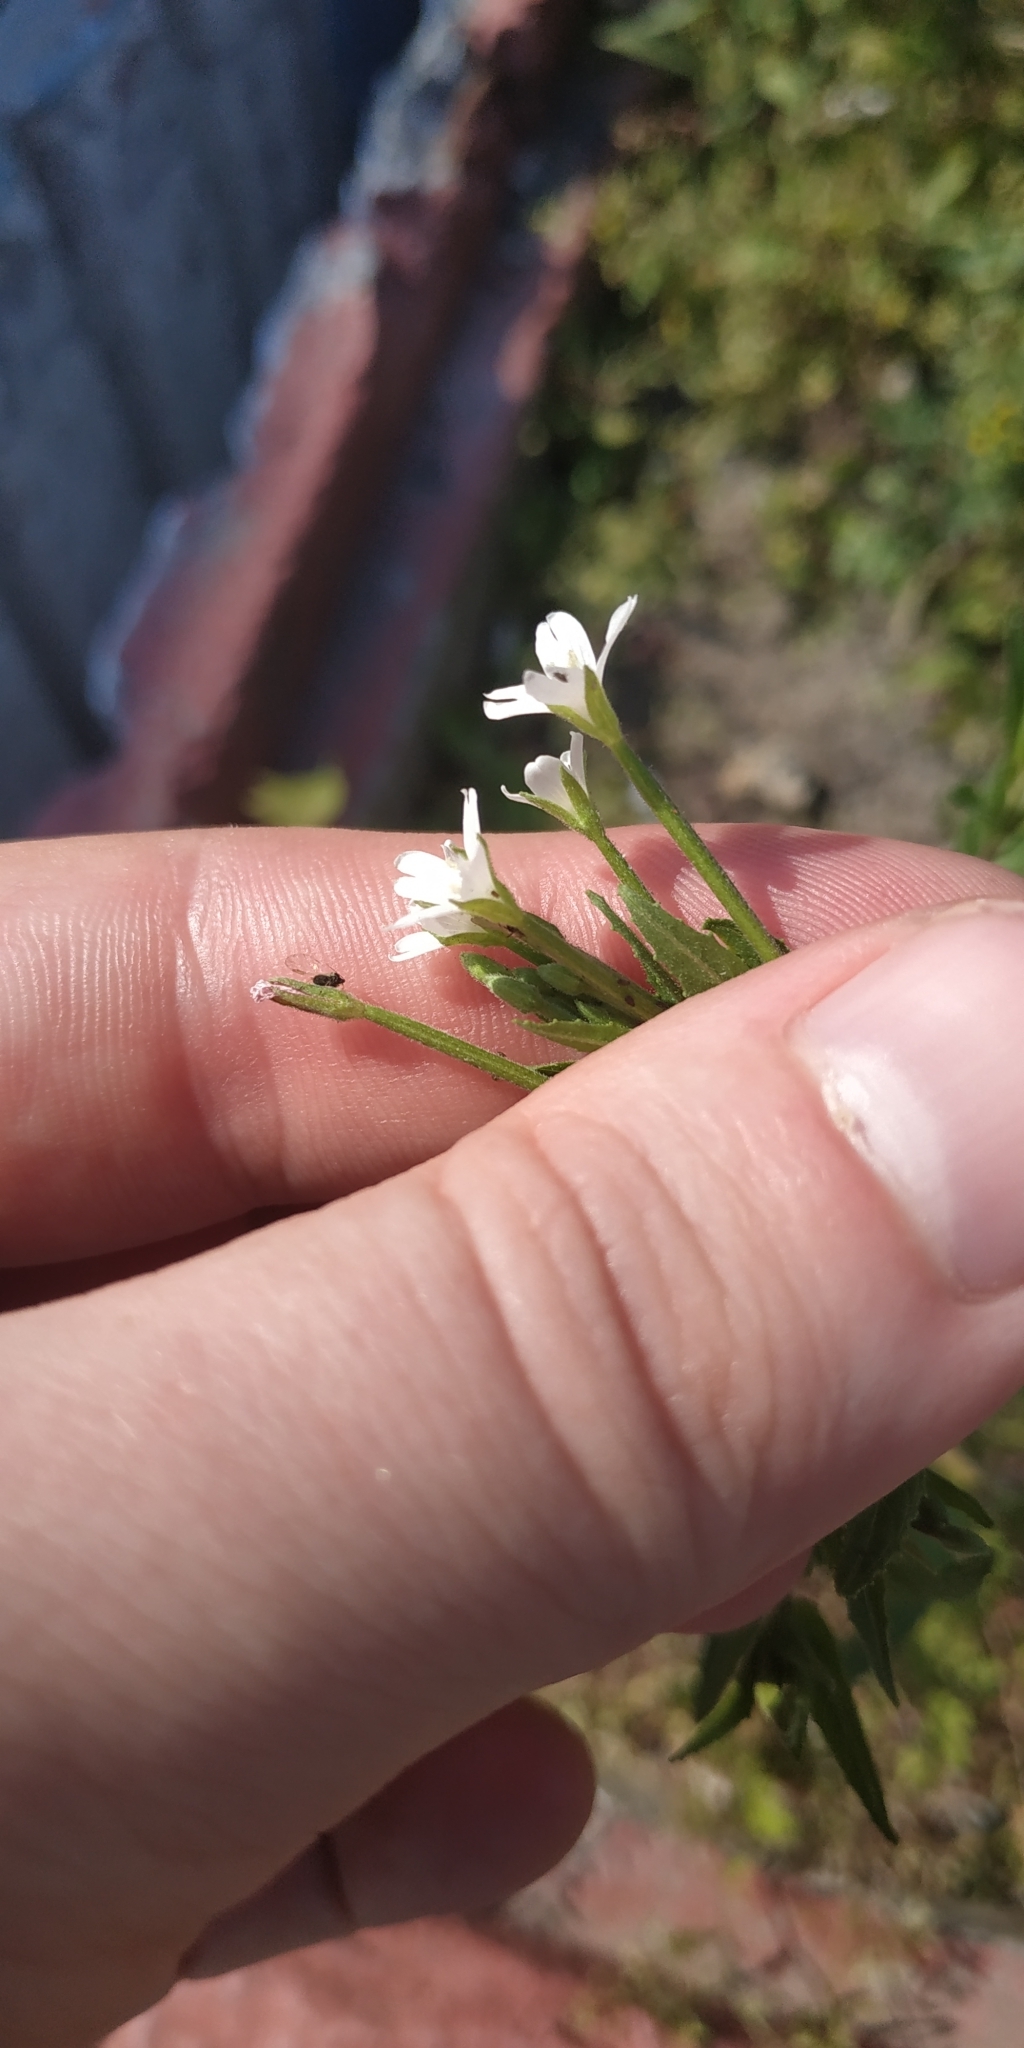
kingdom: Plantae
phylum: Tracheophyta
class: Magnoliopsida
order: Myrtales
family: Onagraceae
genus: Epilobium
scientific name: Epilobium pseudorubescens
